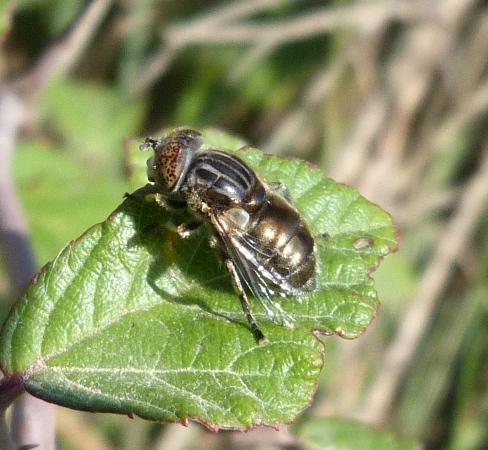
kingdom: Animalia
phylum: Arthropoda
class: Insecta
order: Diptera
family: Syrphidae
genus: Eristalinus
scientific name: Eristalinus aeneus
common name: Syrphid fly
